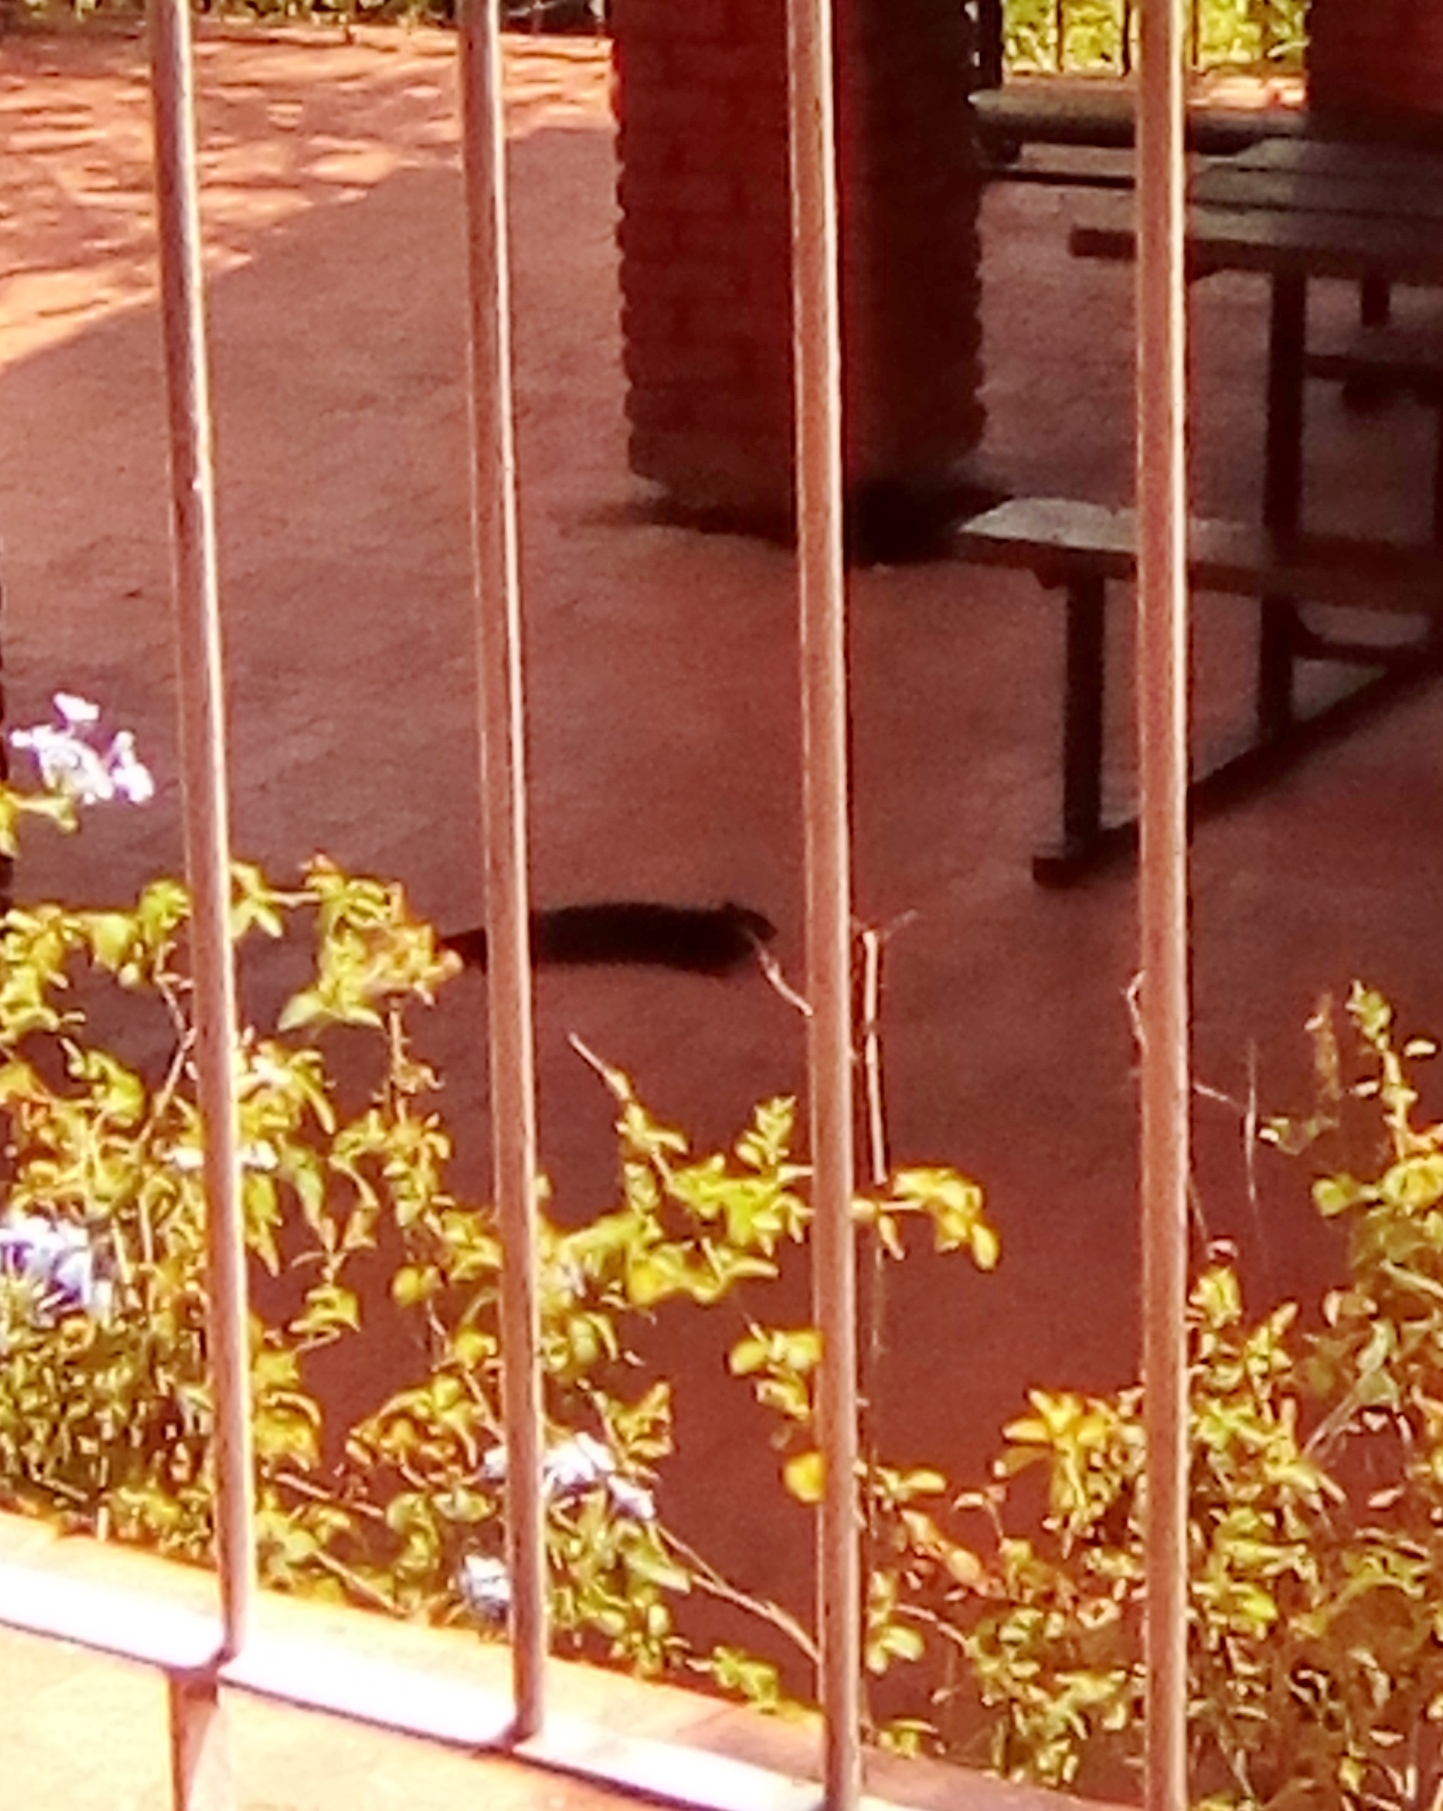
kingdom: Animalia
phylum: Chordata
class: Mammalia
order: Rodentia
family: Sciuridae
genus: Otospermophilus
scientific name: Otospermophilus variegatus
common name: Rock squirrel
